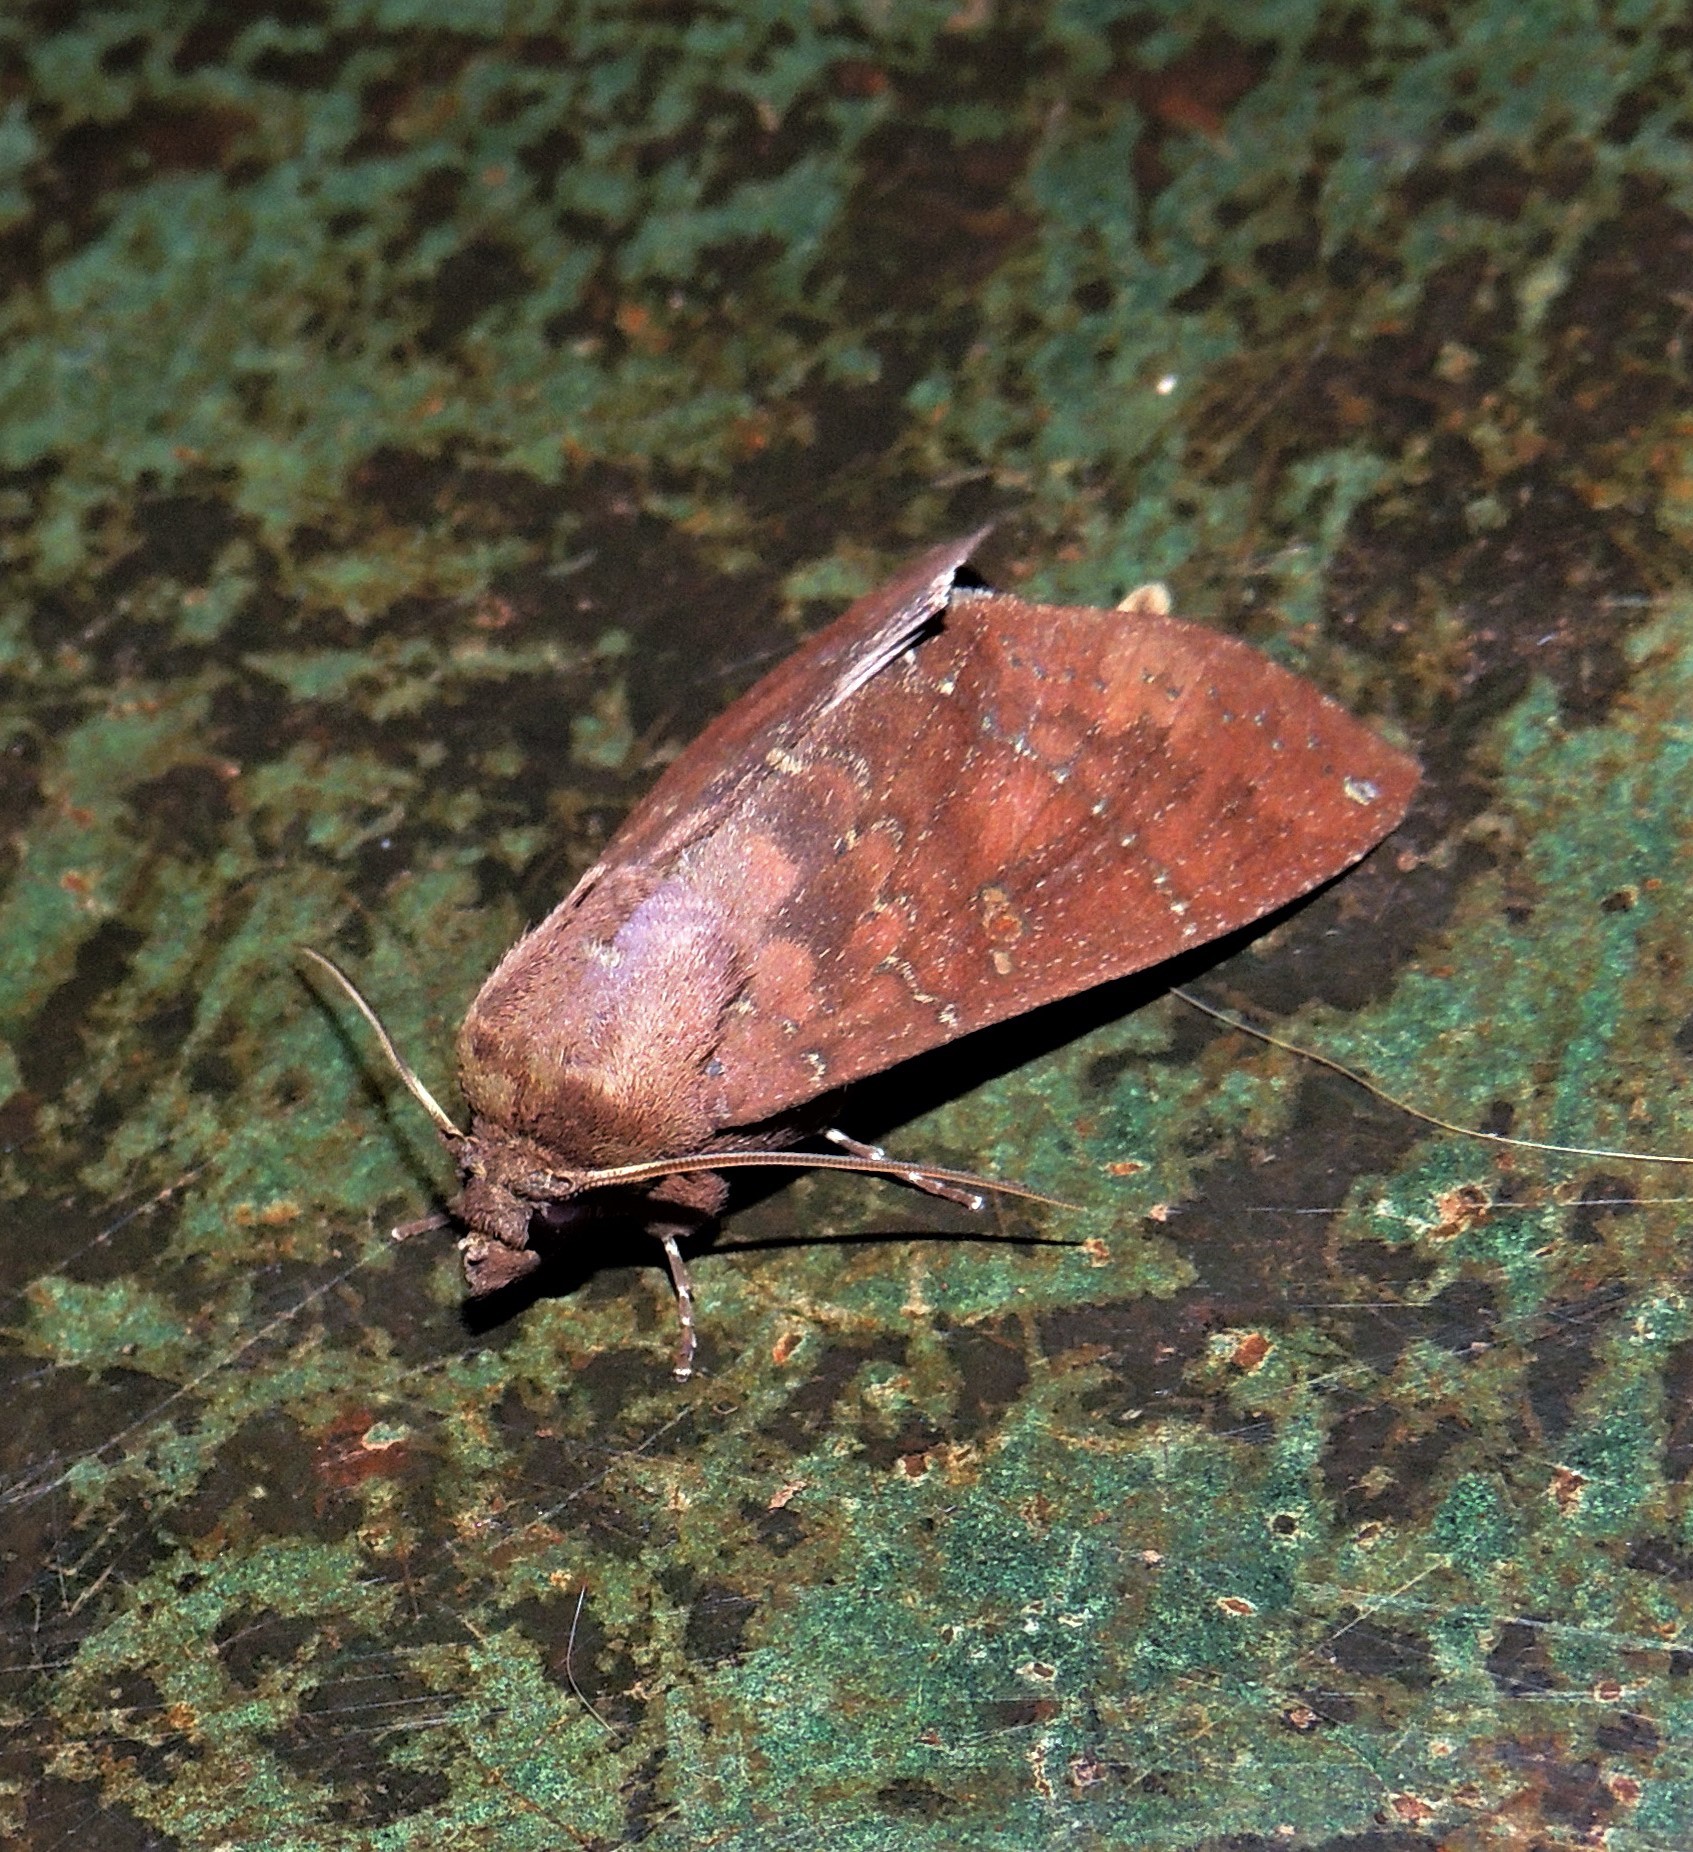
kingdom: Animalia
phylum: Arthropoda
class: Insecta
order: Lepidoptera
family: Notodontidae
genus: Hapigia
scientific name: Hapigia simplex
